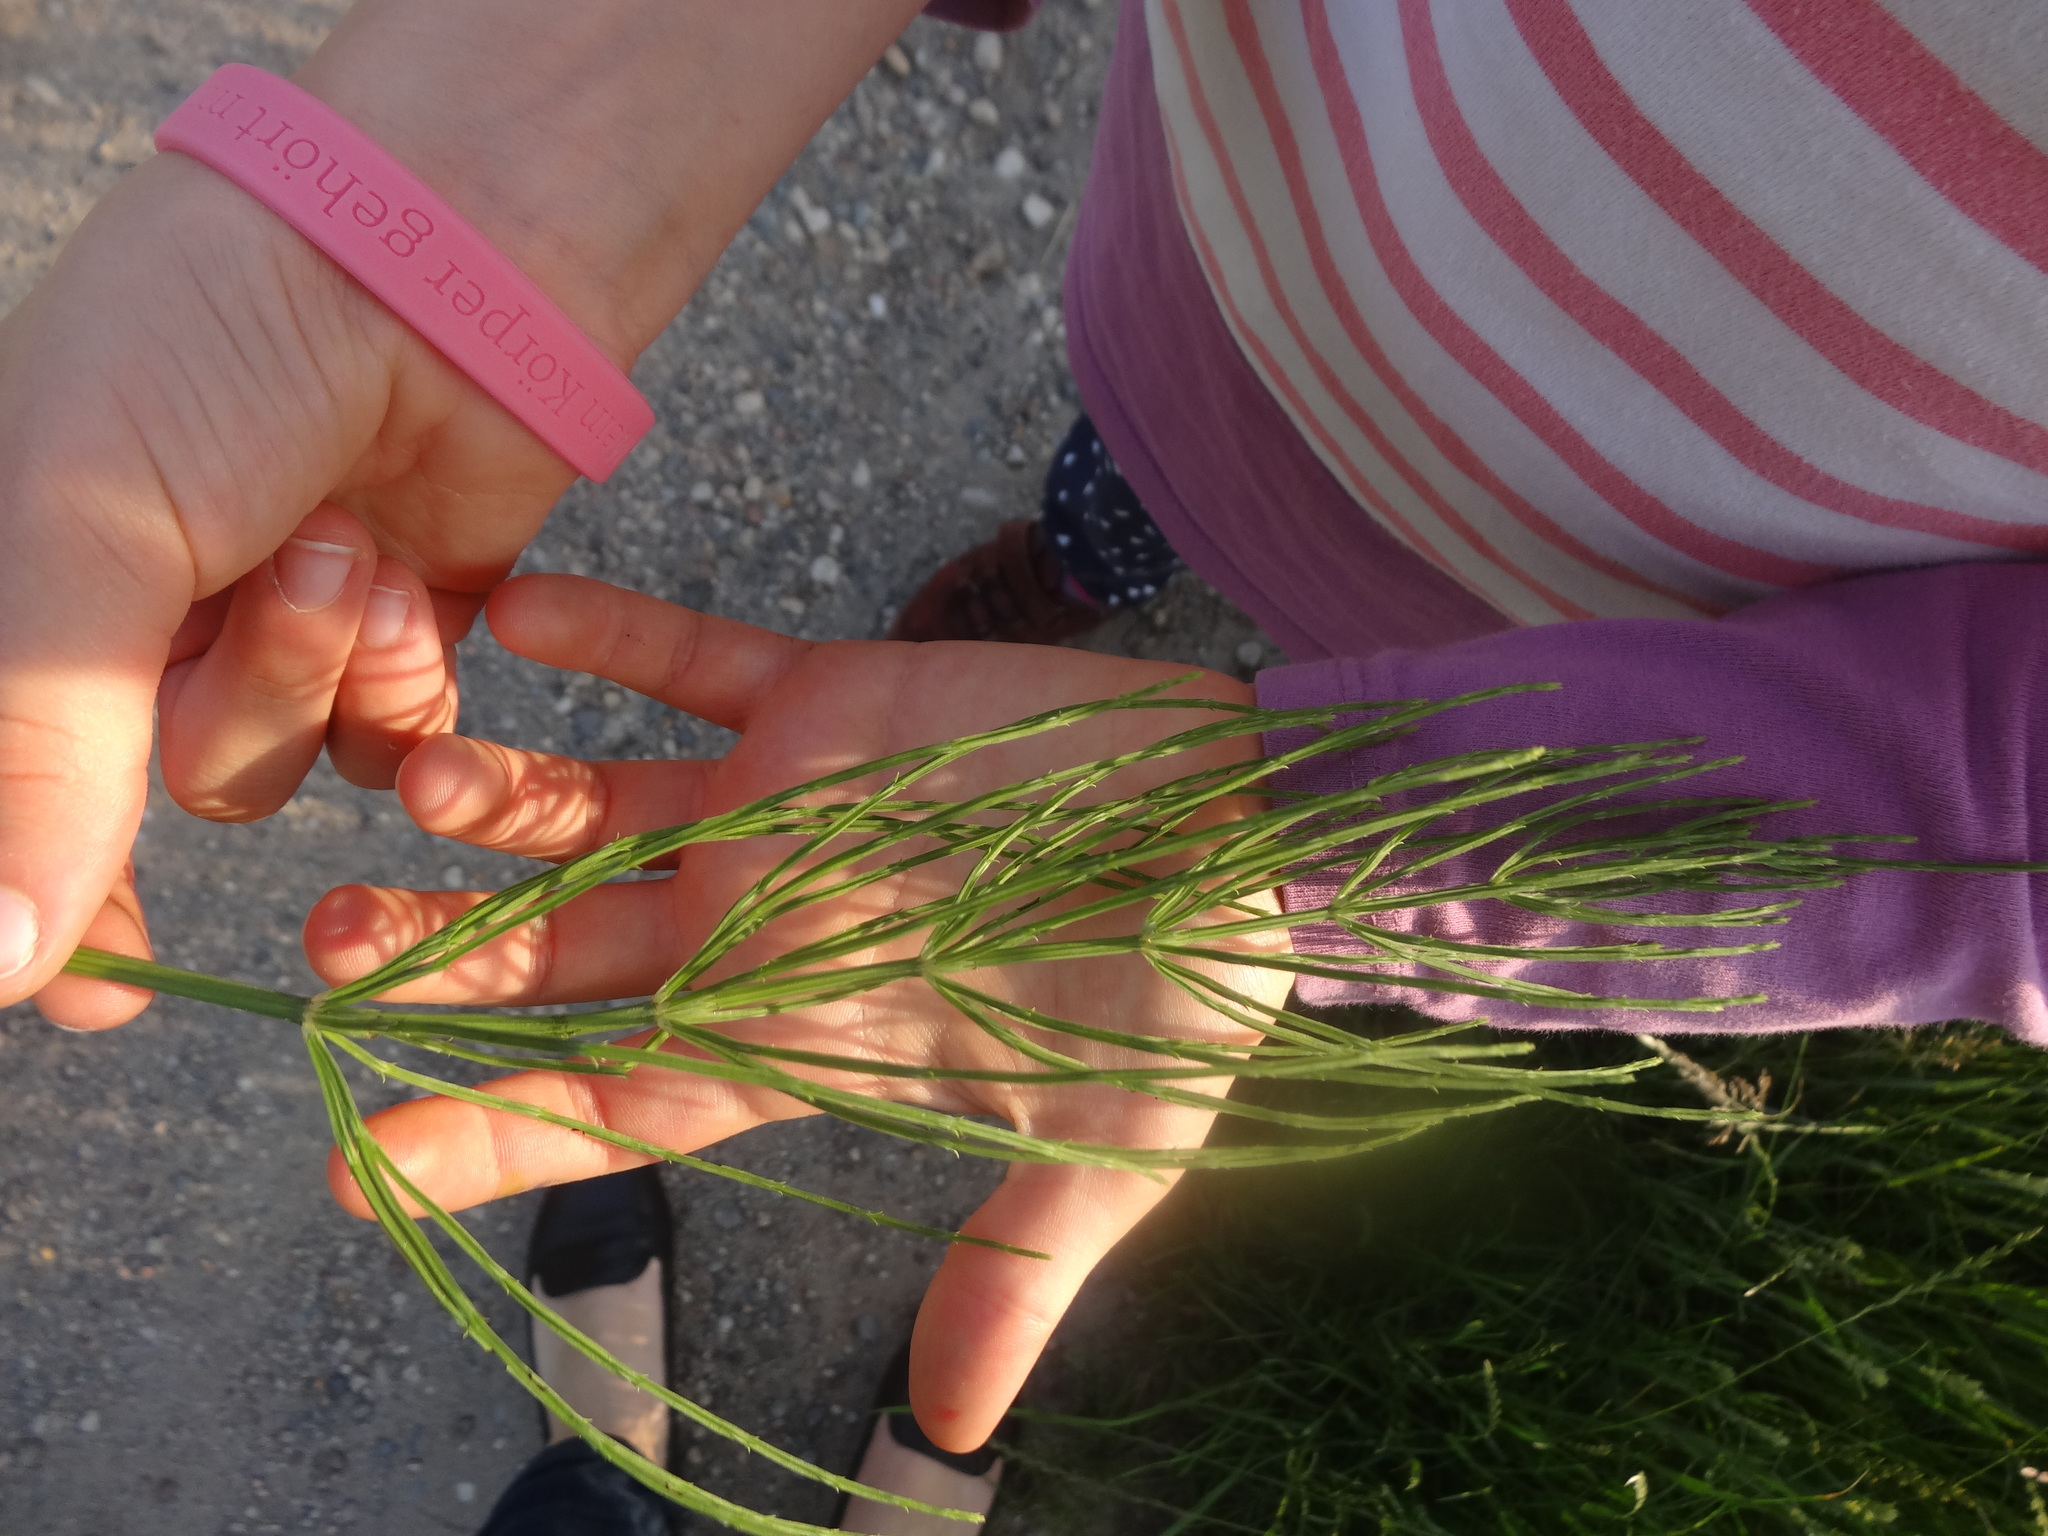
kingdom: Plantae
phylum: Tracheophyta
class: Polypodiopsida
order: Equisetales
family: Equisetaceae
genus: Equisetum
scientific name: Equisetum arvense
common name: Field horsetail
